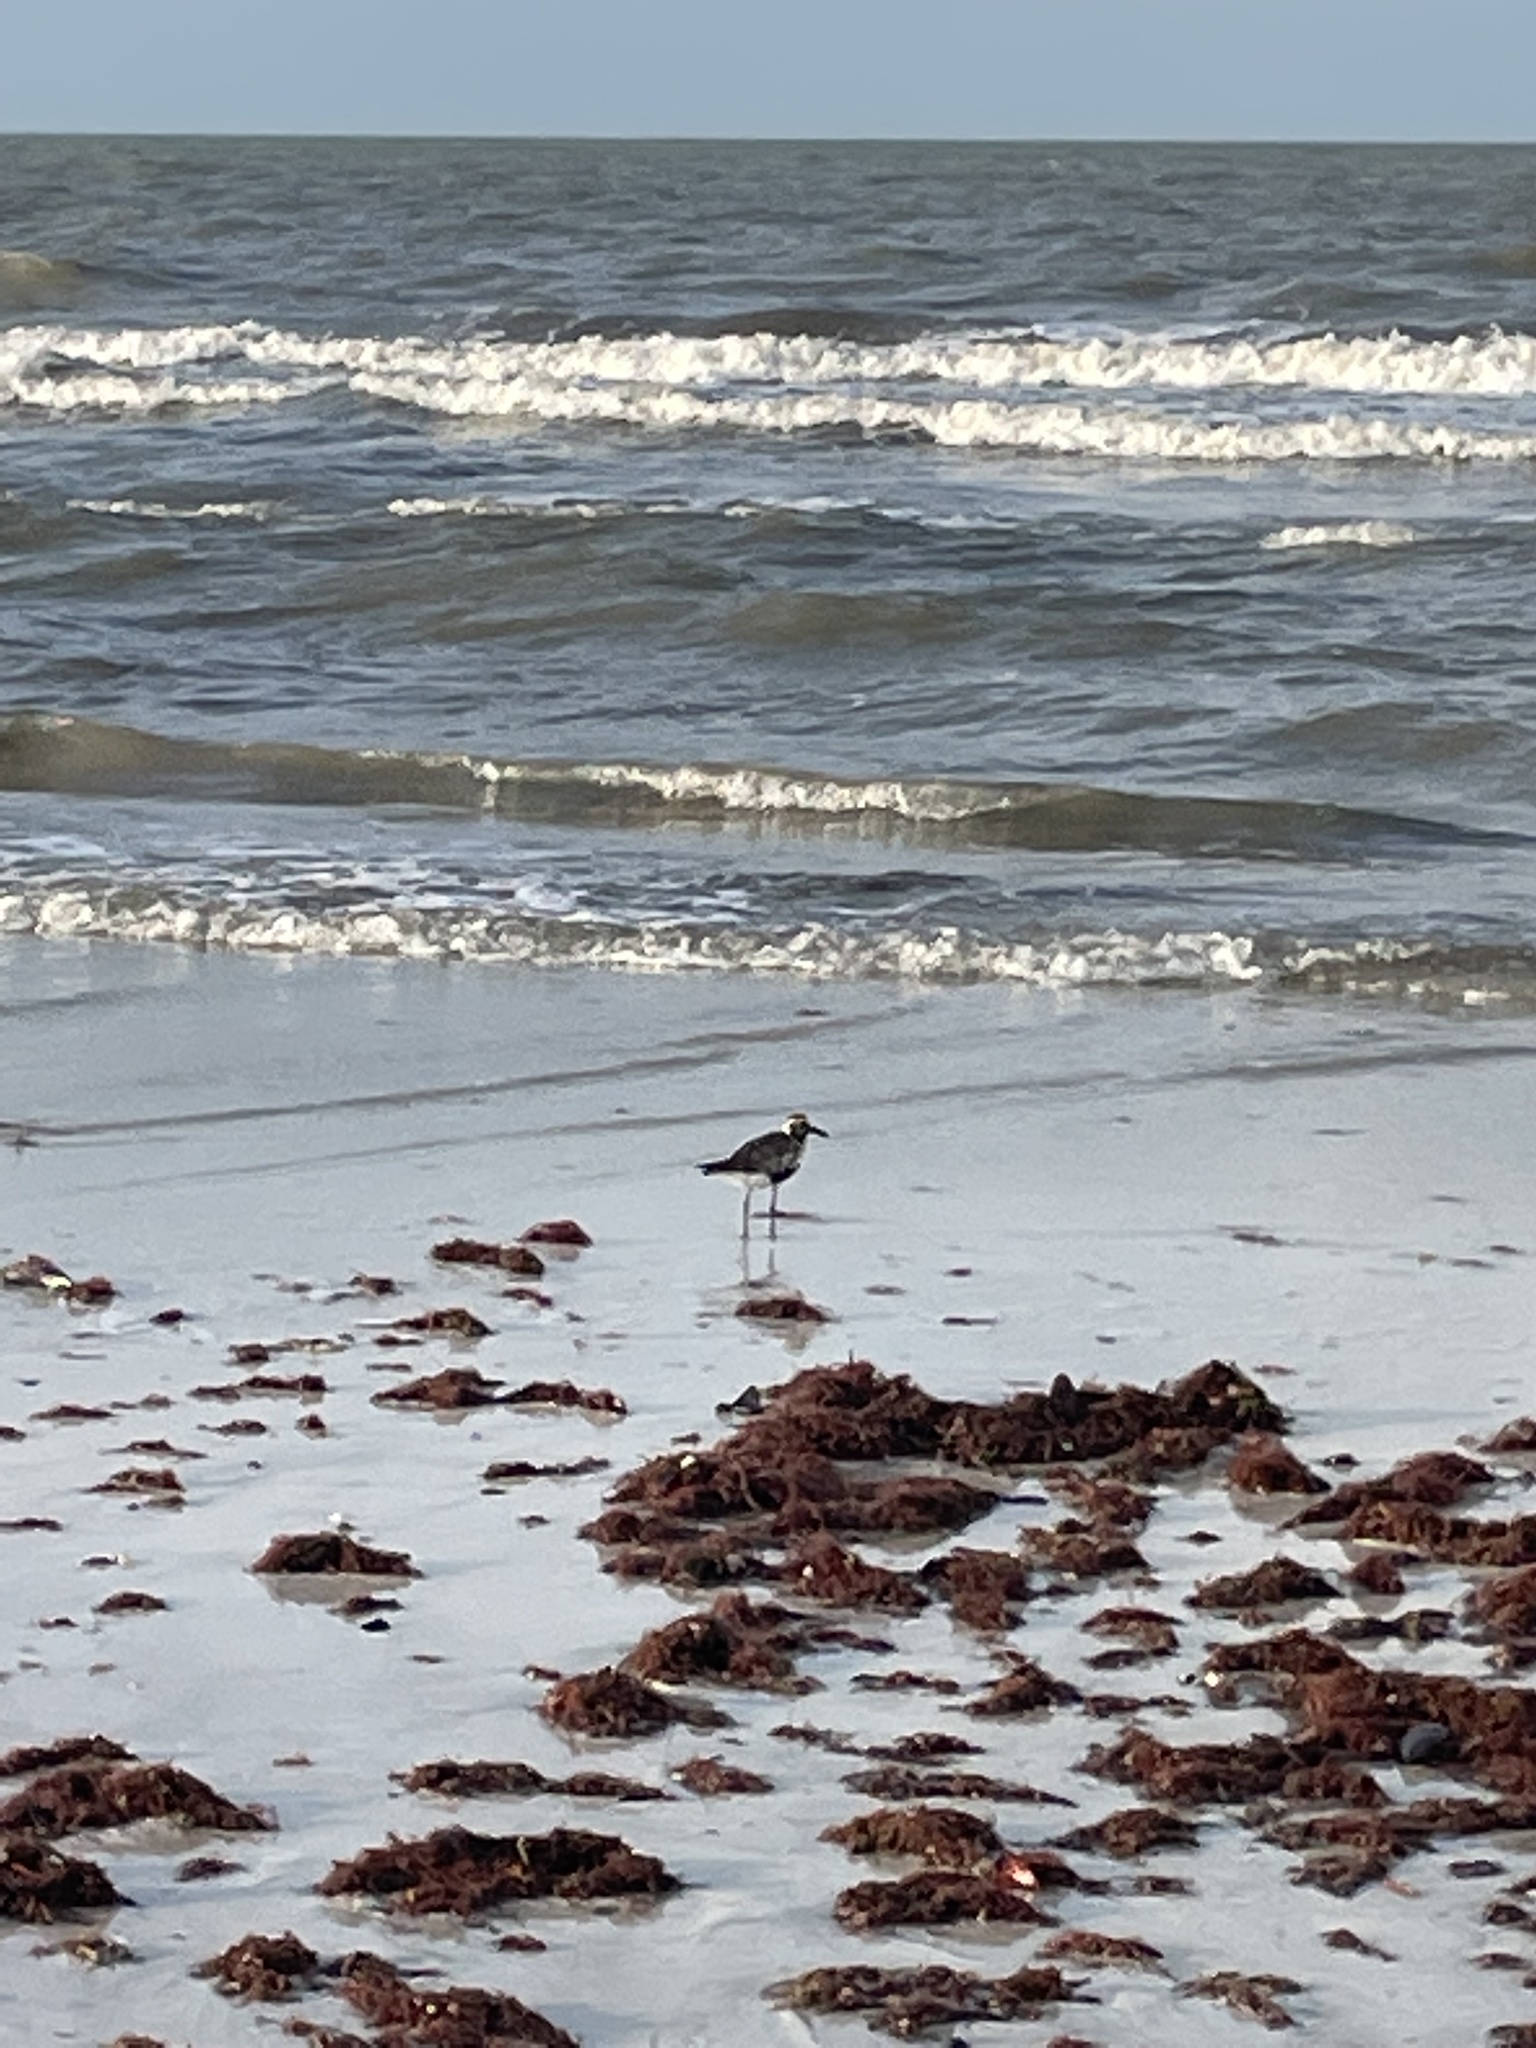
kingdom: Animalia
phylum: Chordata
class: Aves
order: Charadriiformes
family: Charadriidae
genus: Pluvialis
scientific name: Pluvialis squatarola
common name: Grey plover
